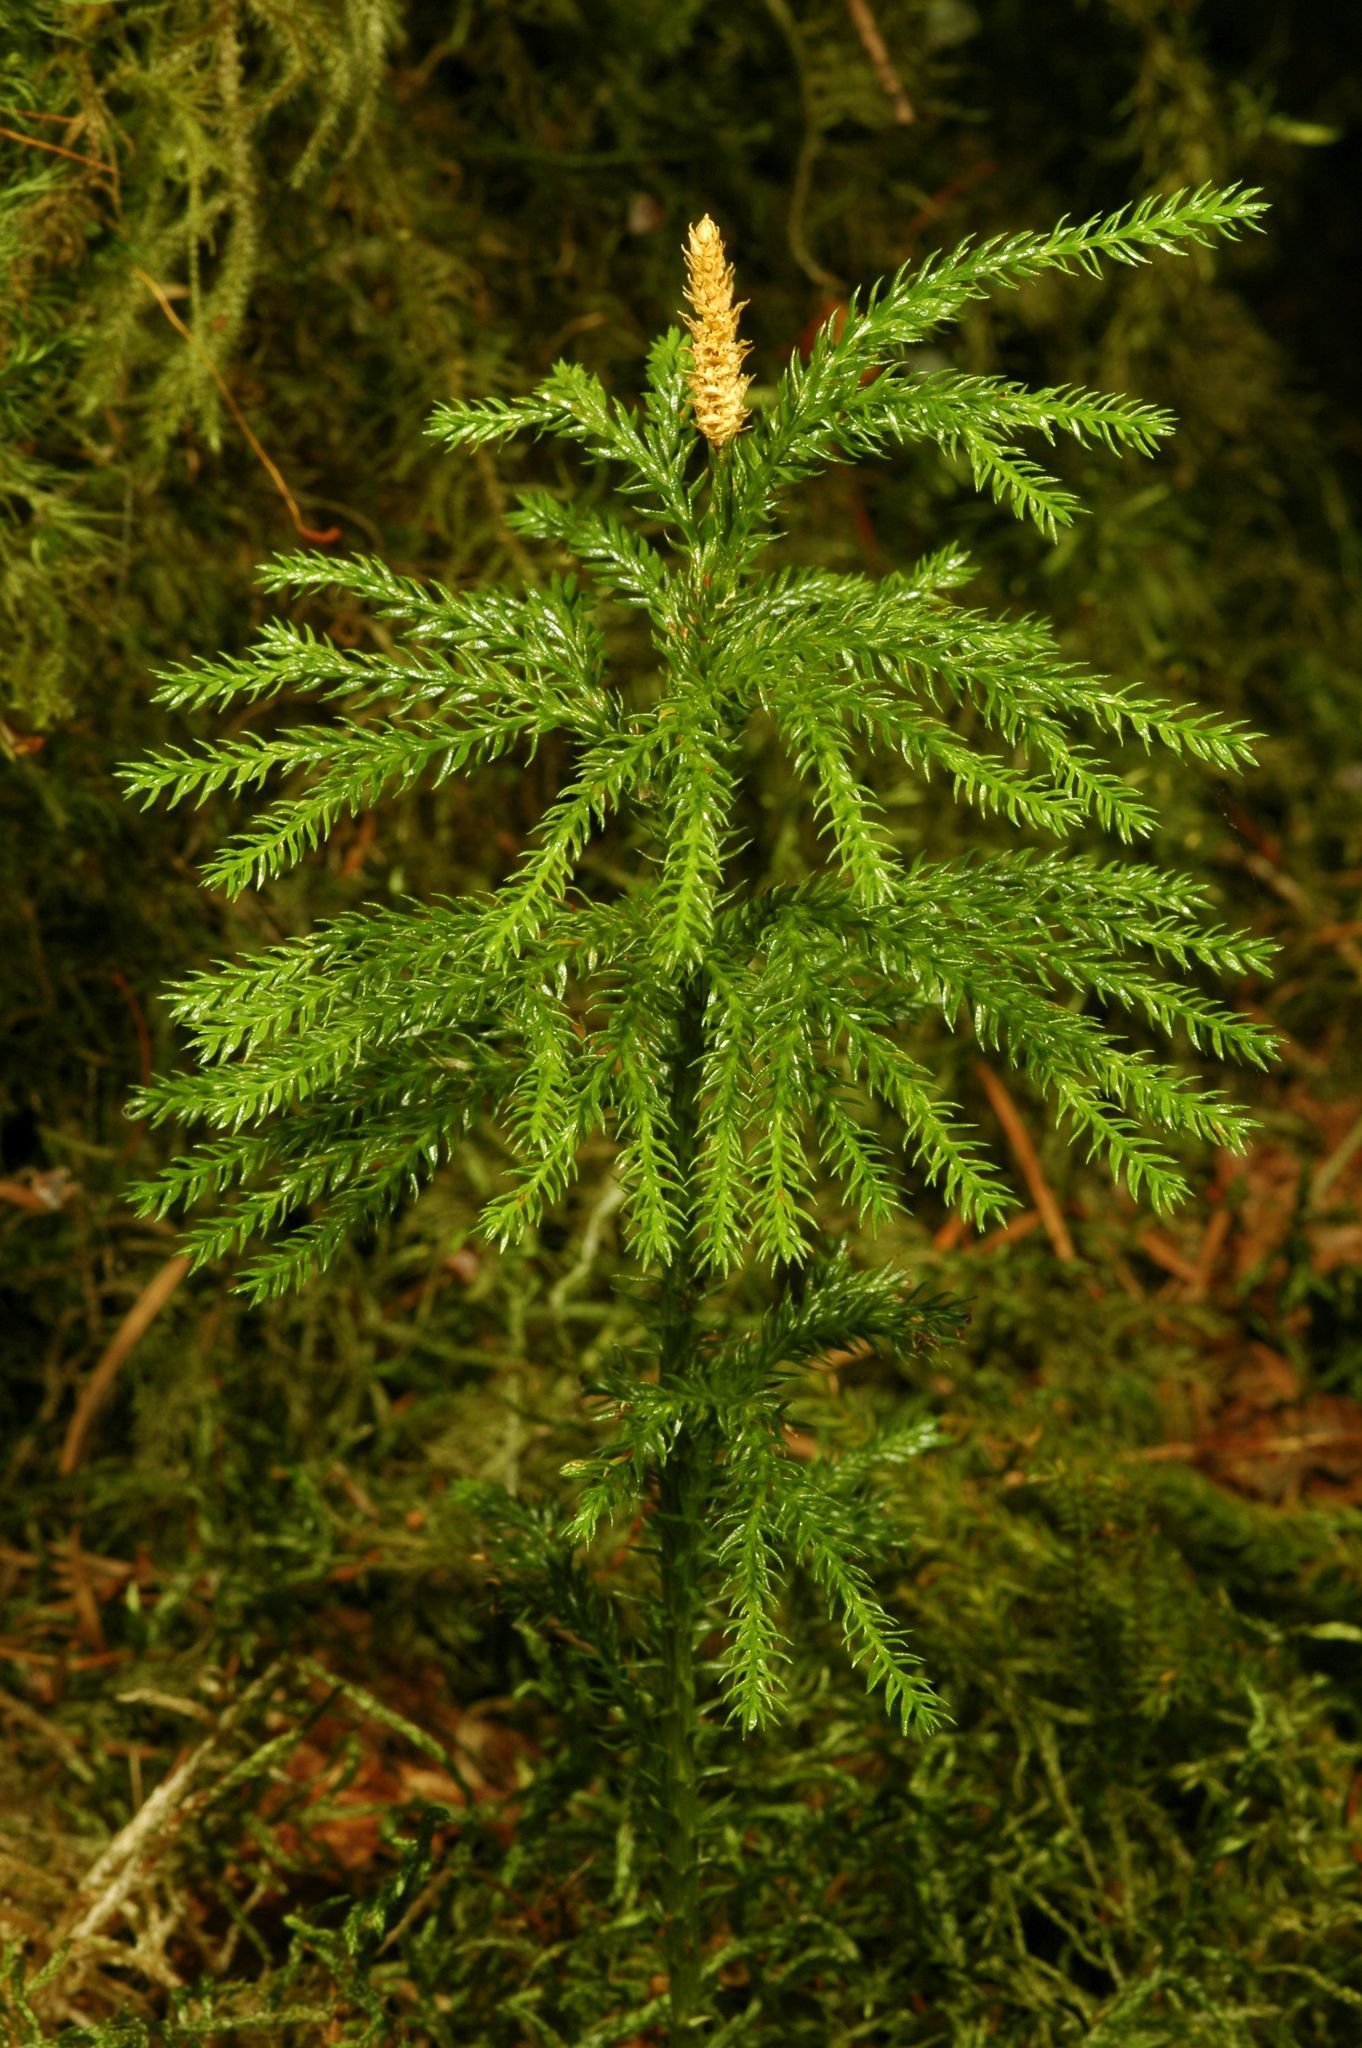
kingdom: Plantae
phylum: Tracheophyta
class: Lycopodiopsida
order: Lycopodiales
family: Lycopodiaceae
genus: Dendrolycopodium
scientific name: Dendrolycopodium dendroideum
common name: Northern tree-clubmoss
